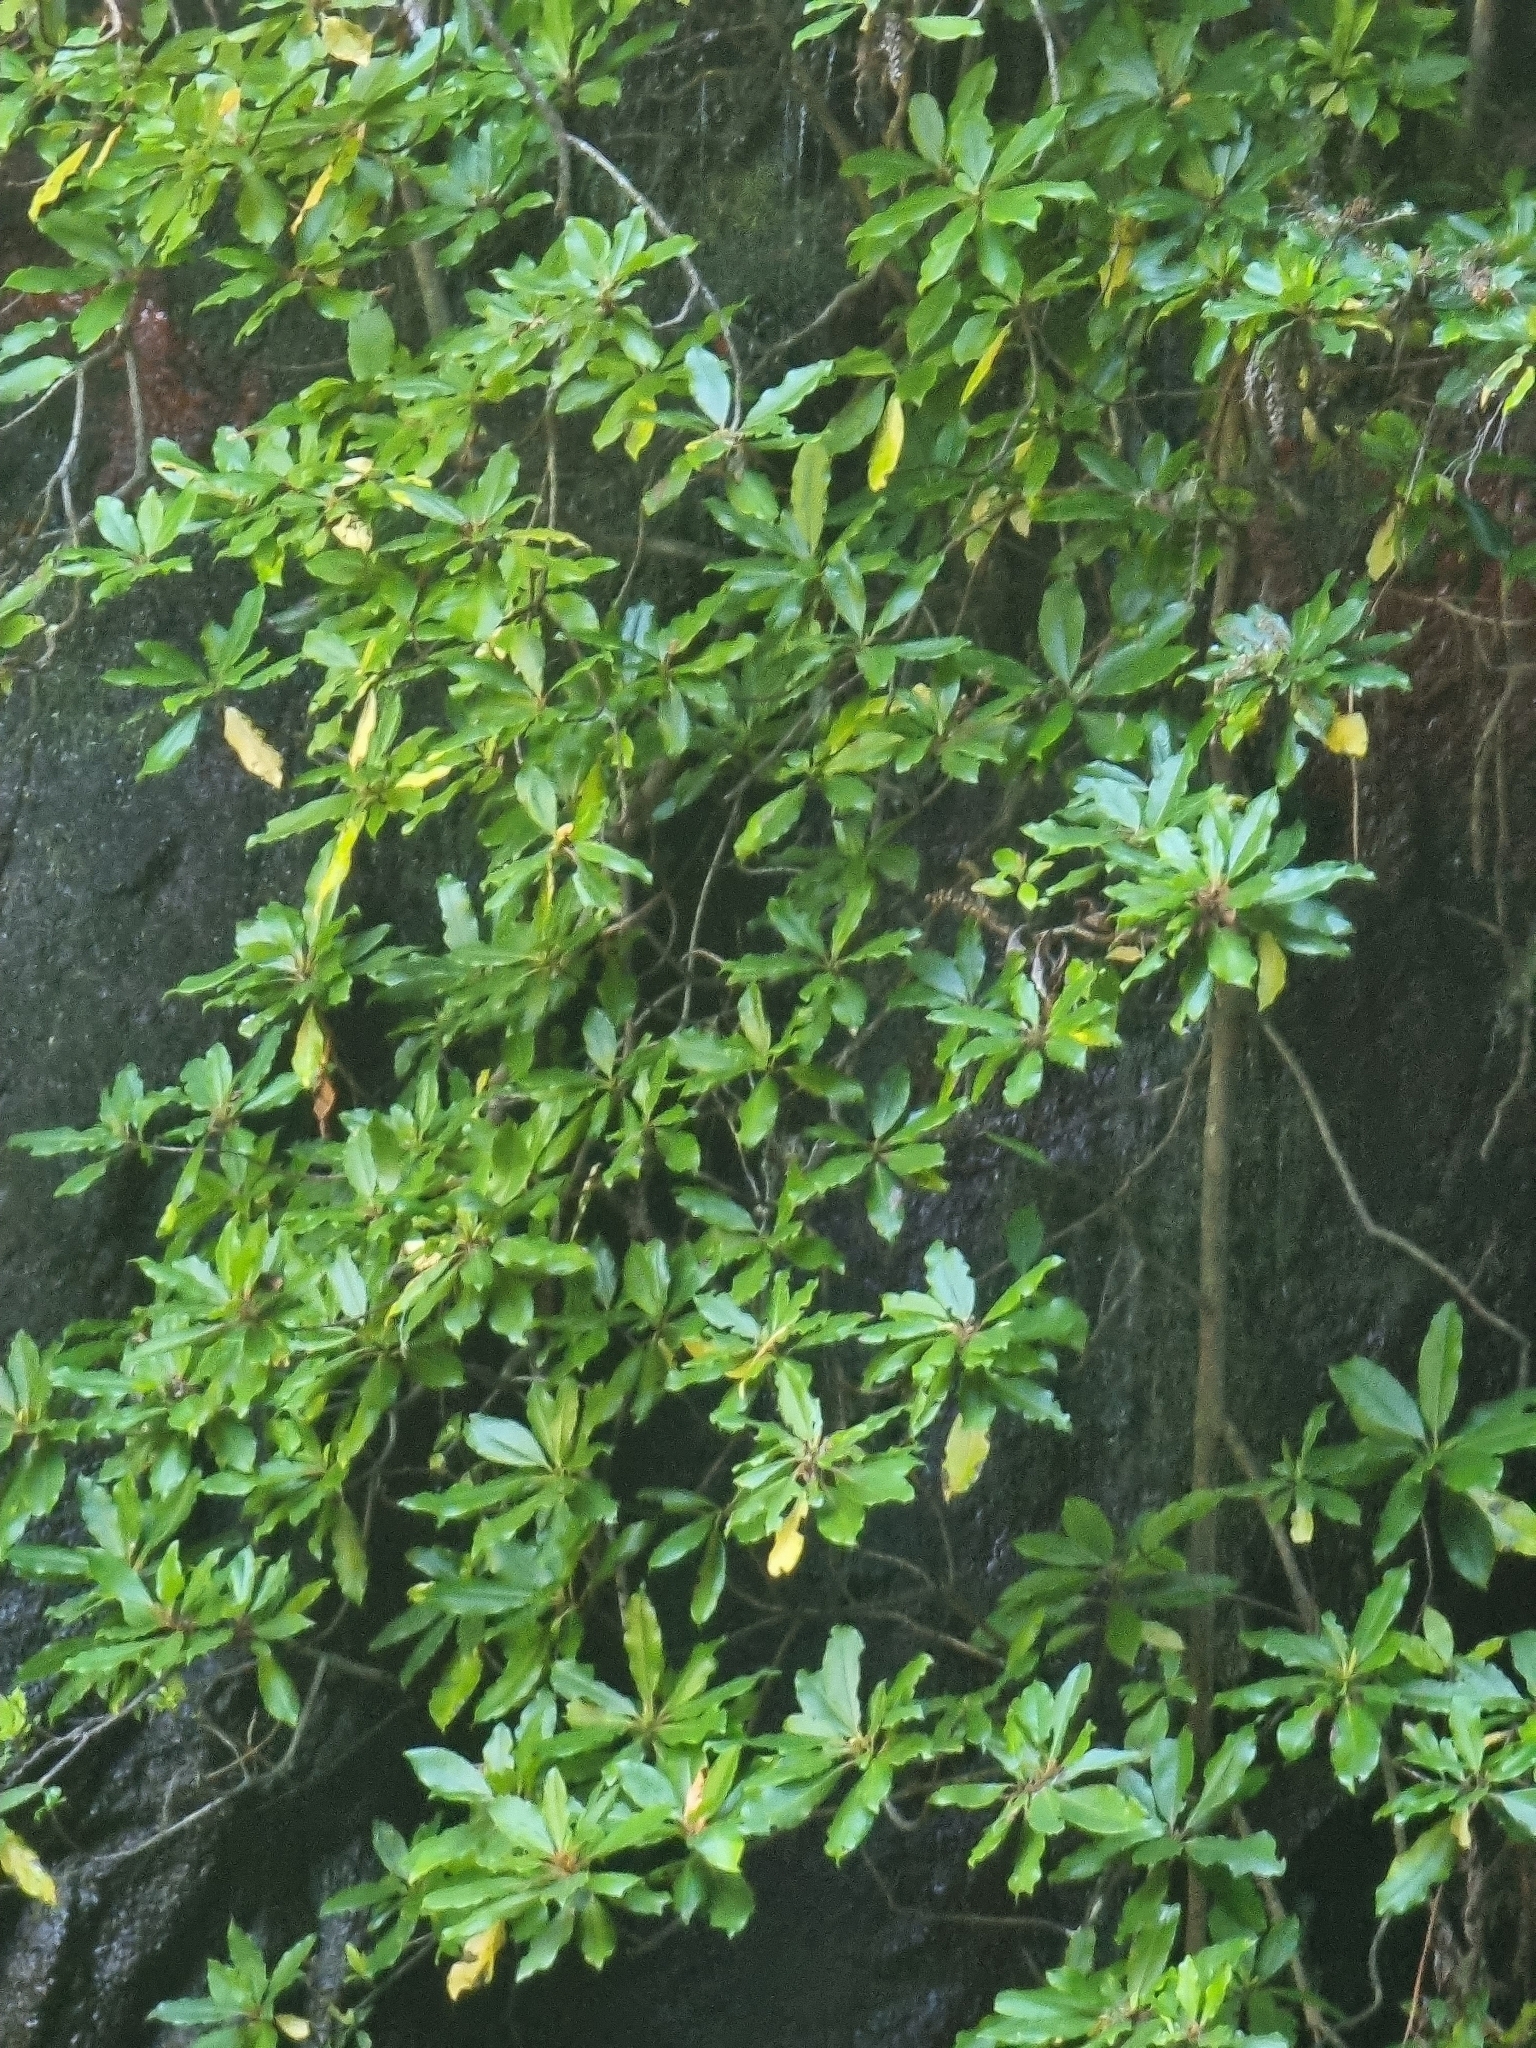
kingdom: Plantae
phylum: Tracheophyta
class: Magnoliopsida
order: Ericales
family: Clethraceae
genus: Clethra
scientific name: Clethra arborea
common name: Lily-of-the-valley-tree
